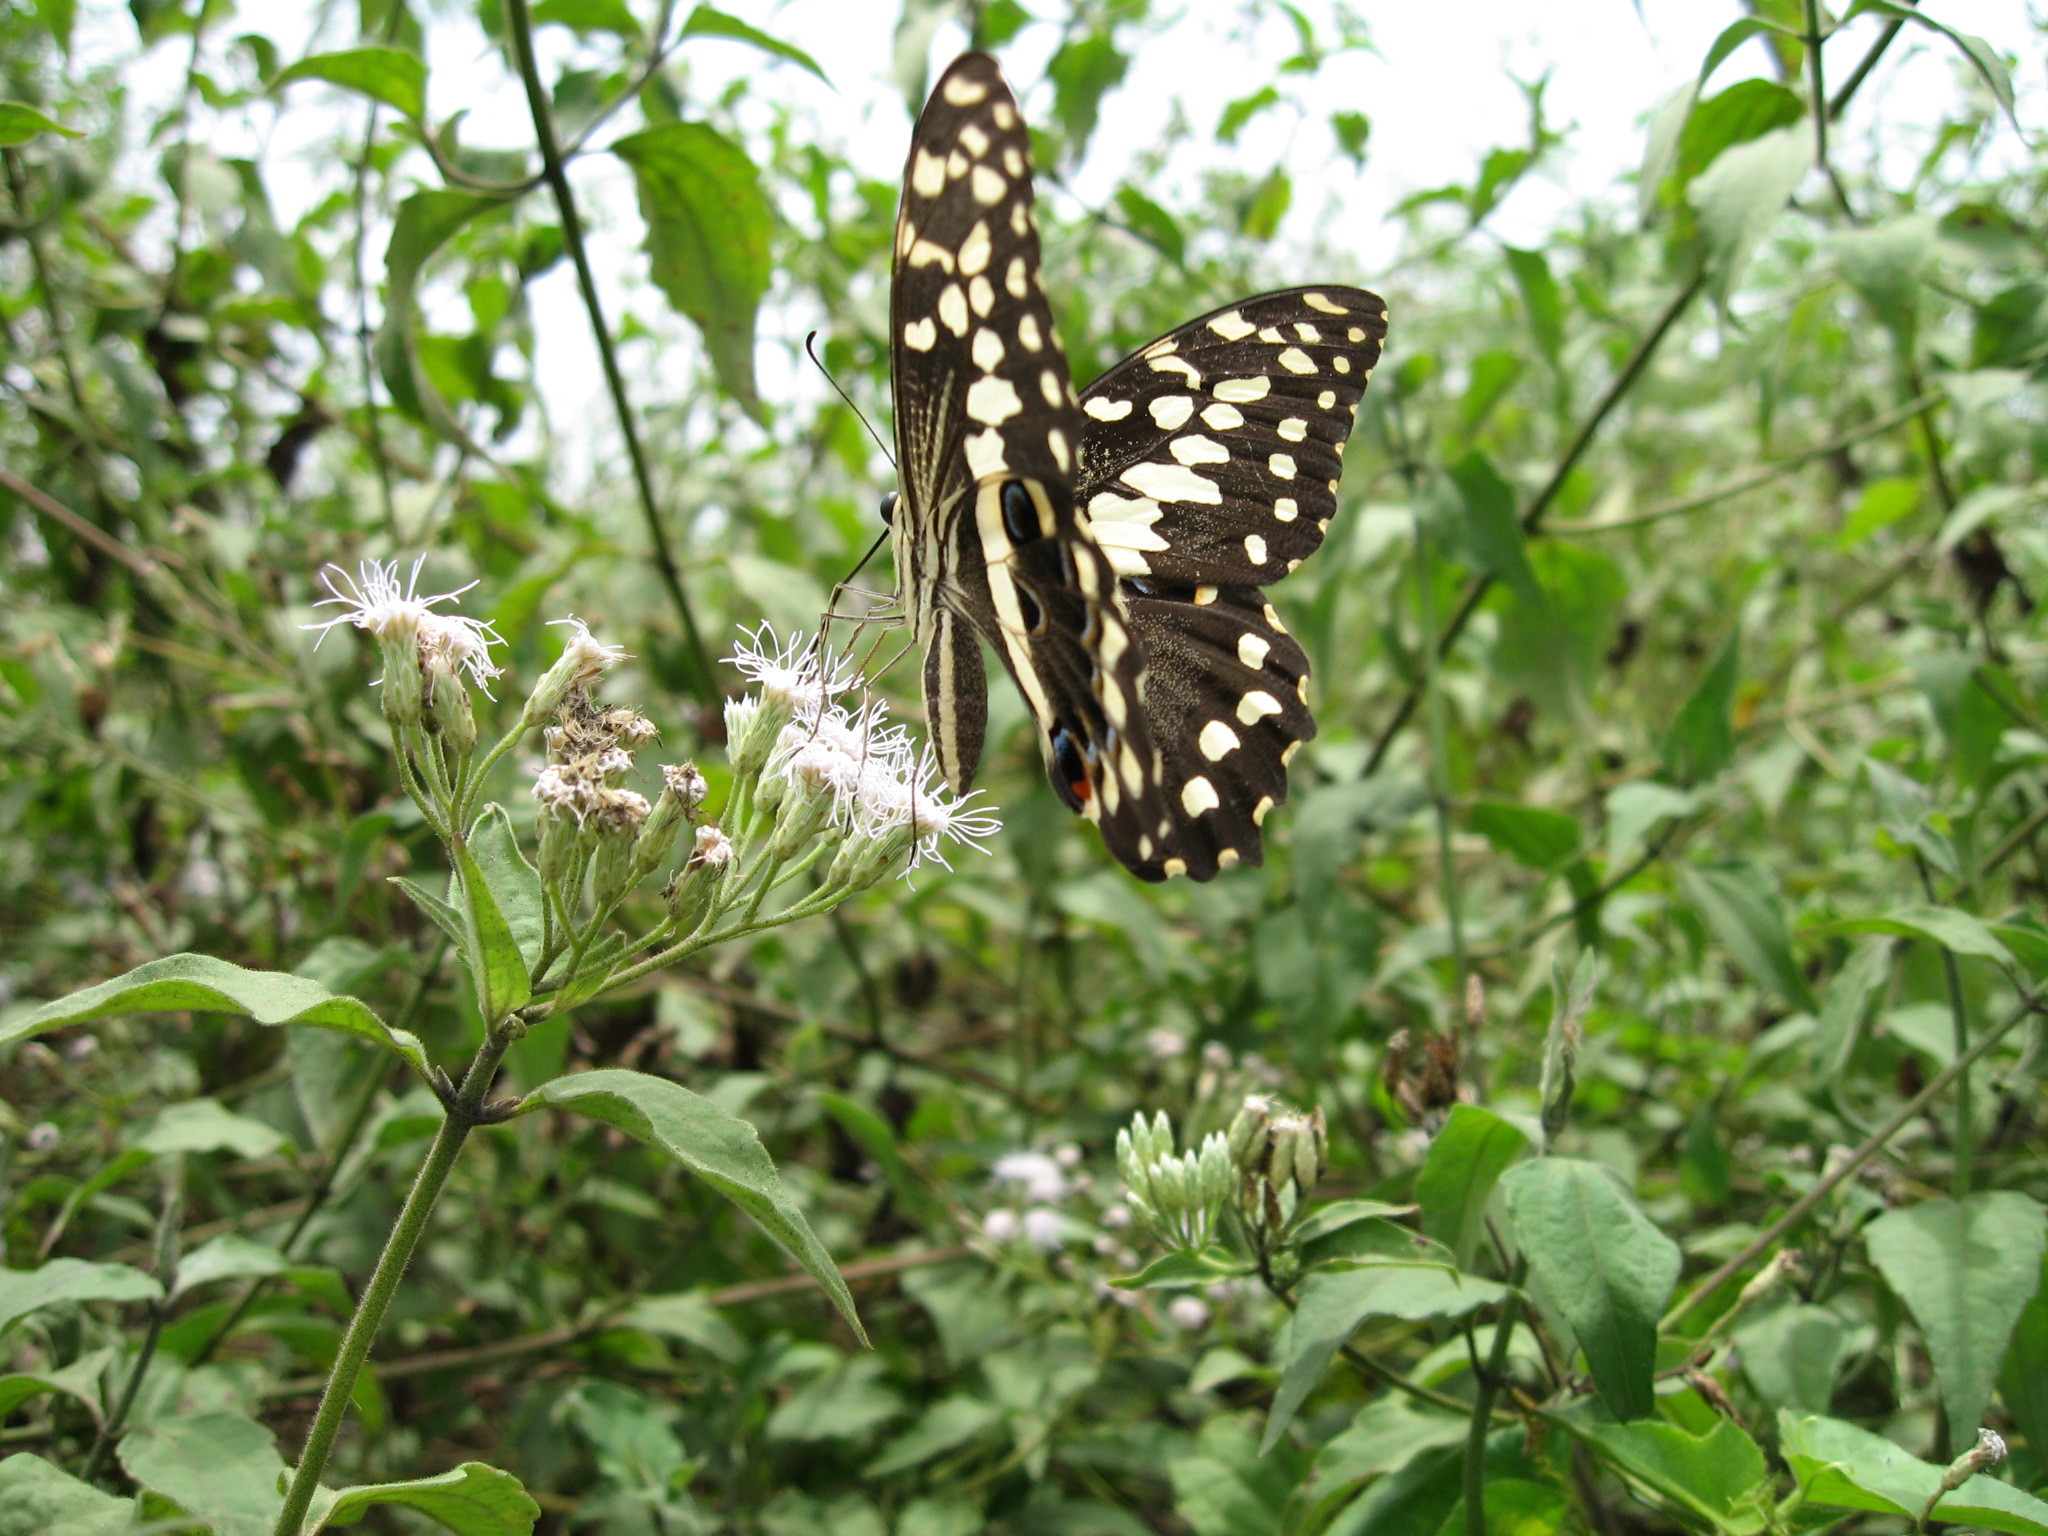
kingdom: Animalia
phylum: Arthropoda
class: Insecta
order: Lepidoptera
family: Papilionidae
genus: Papilio
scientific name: Papilio demodocus
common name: Christmas butterfly
